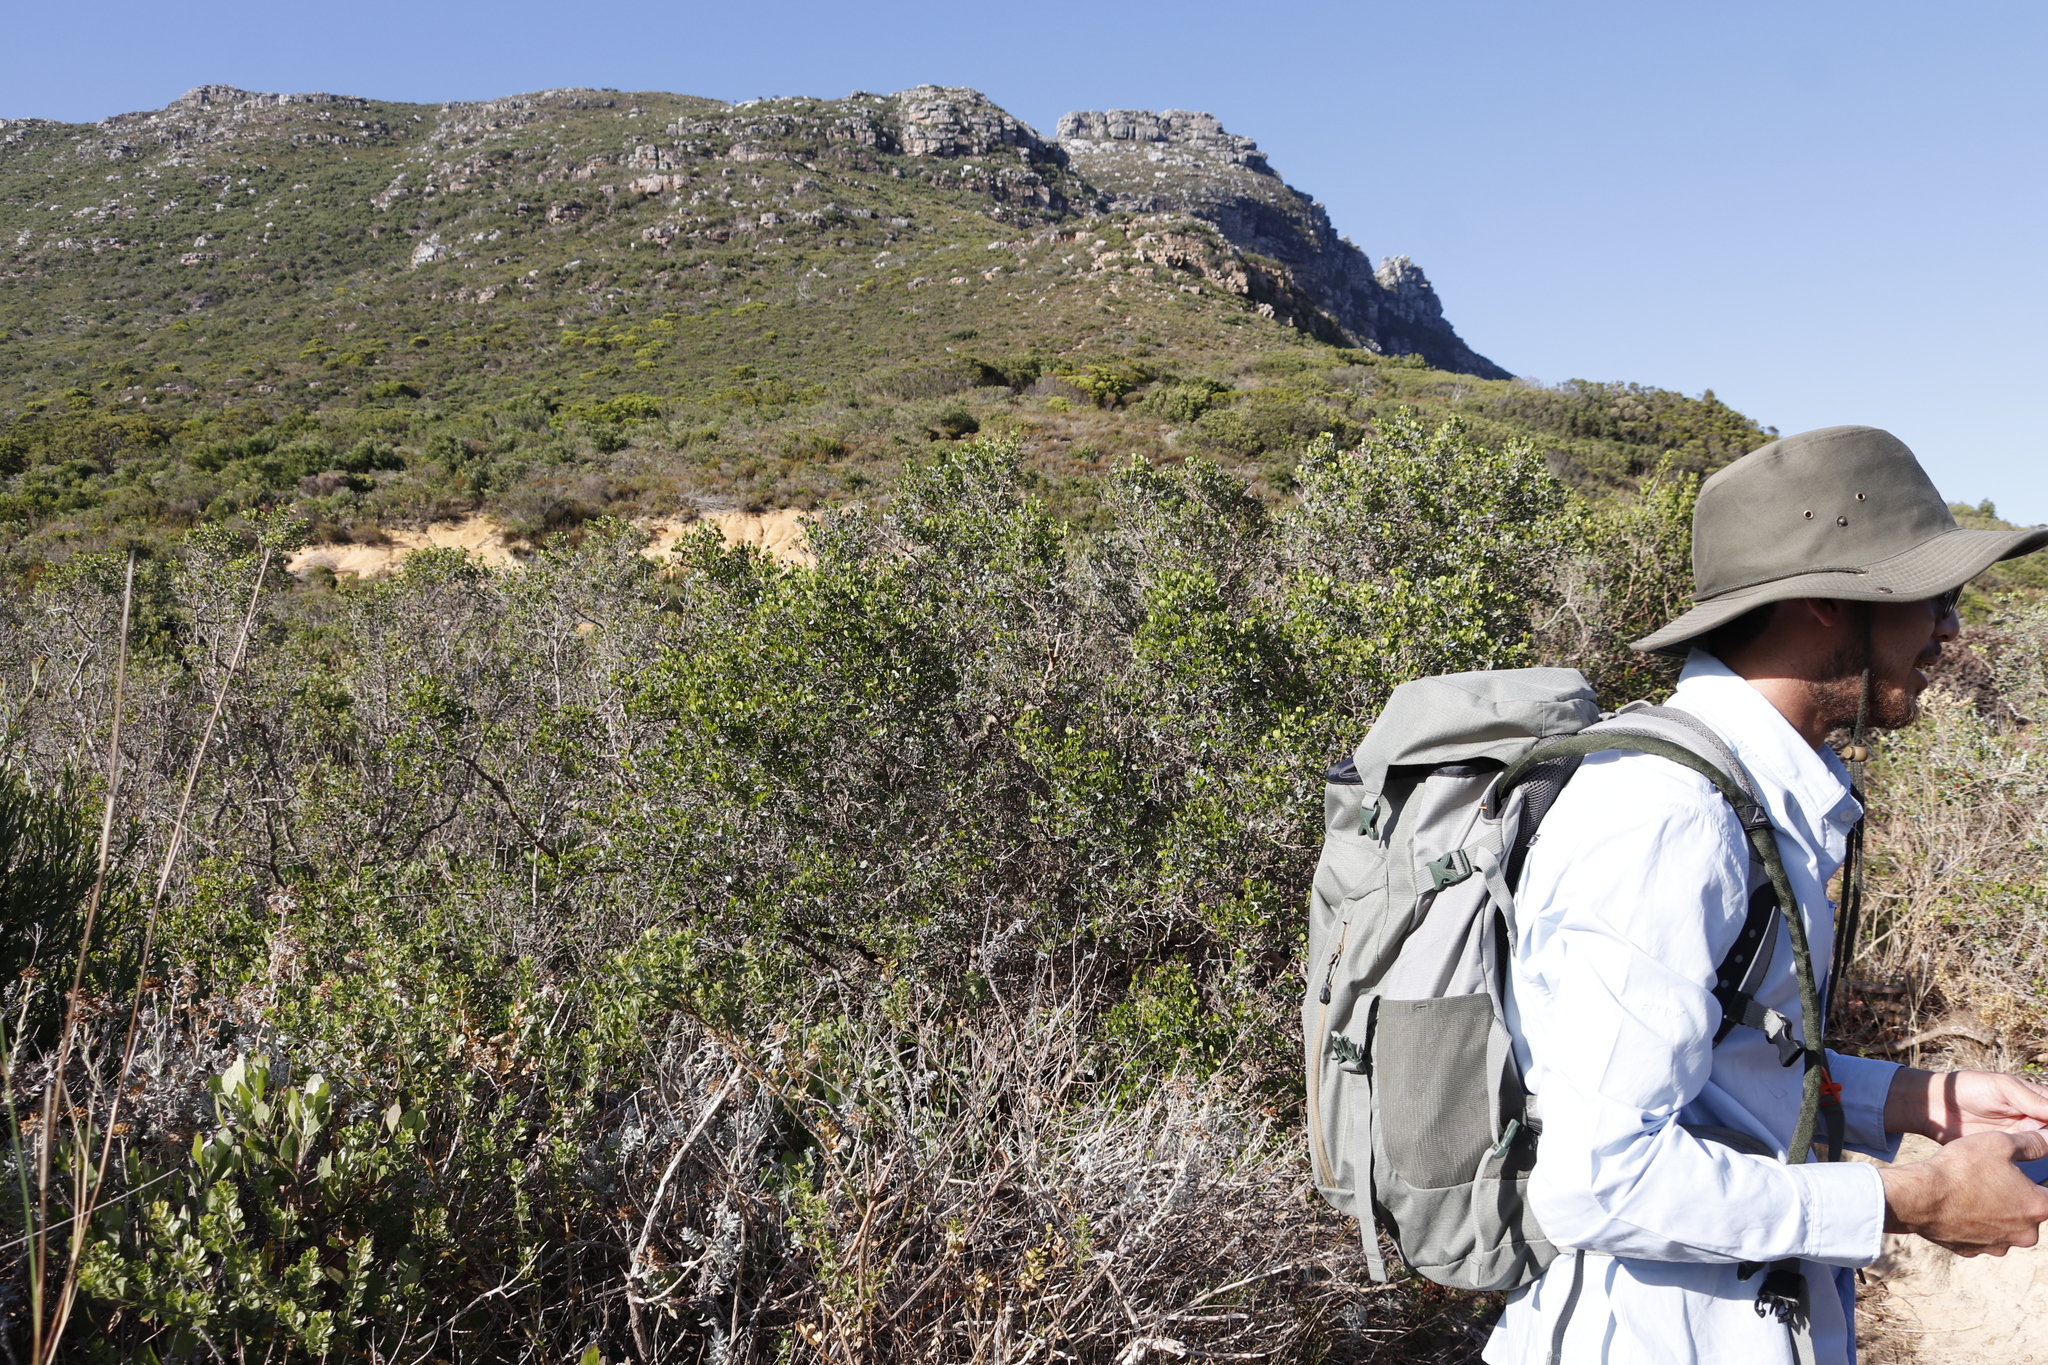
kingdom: Plantae
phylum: Tracheophyta
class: Magnoliopsida
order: Sapindales
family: Anacardiaceae
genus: Searsia
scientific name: Searsia glauca
